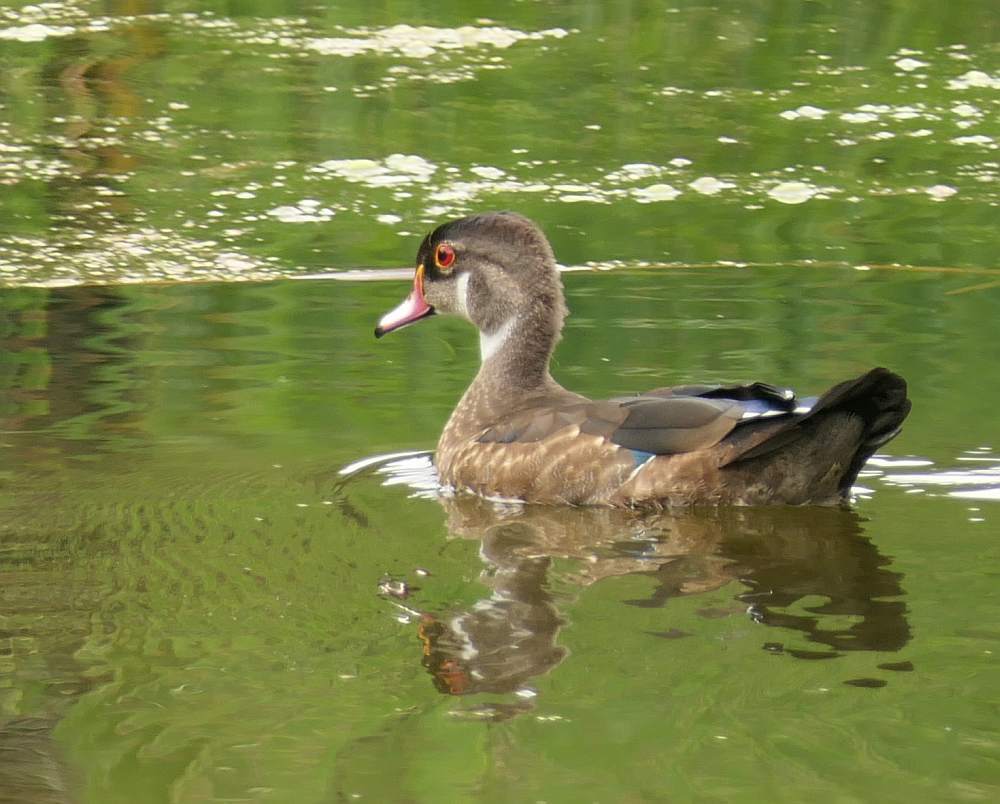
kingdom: Animalia
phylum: Chordata
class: Aves
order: Anseriformes
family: Anatidae
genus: Aix
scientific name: Aix sponsa
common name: Wood duck
